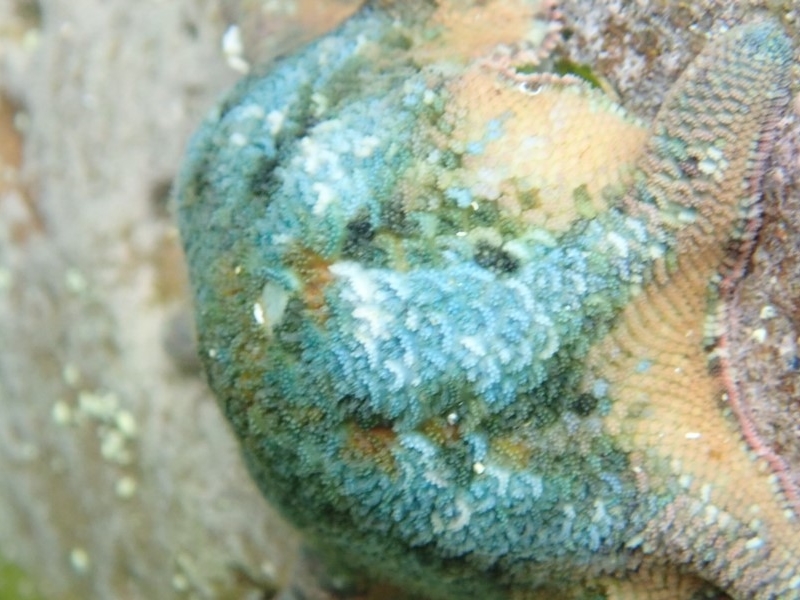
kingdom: Animalia
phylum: Echinodermata
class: Asteroidea
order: Valvatida
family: Asterinidae
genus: Meridiastra
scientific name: Meridiastra calcar
